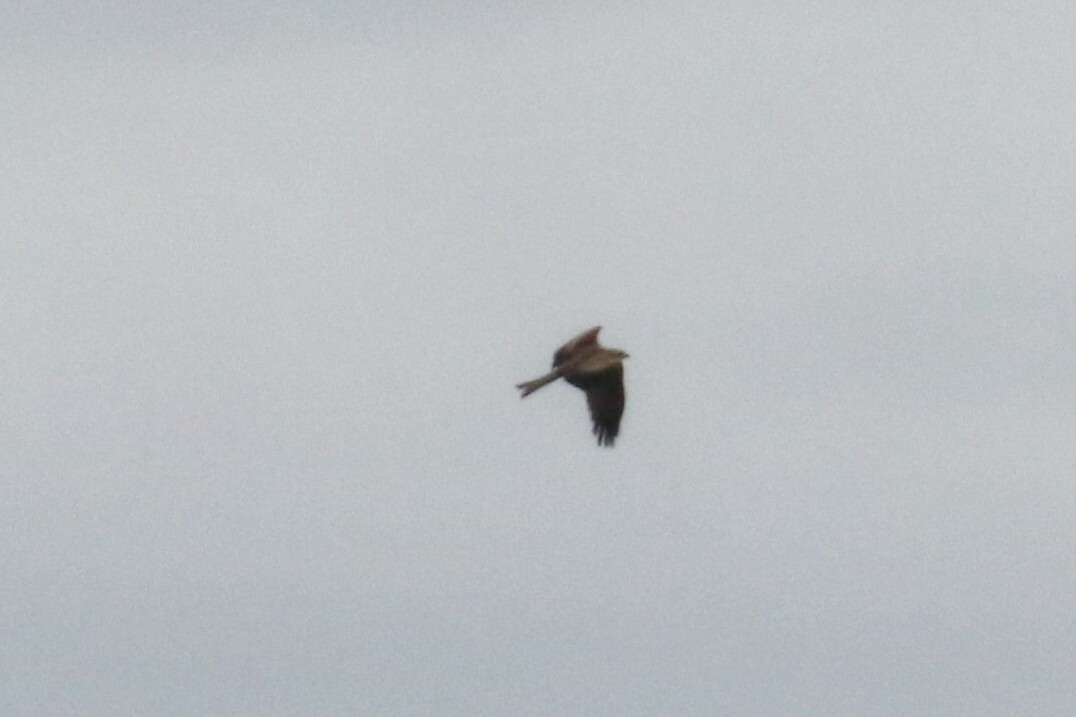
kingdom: Animalia
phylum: Chordata
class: Aves
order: Accipitriformes
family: Accipitridae
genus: Milvus
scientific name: Milvus migrans
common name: Black kite
